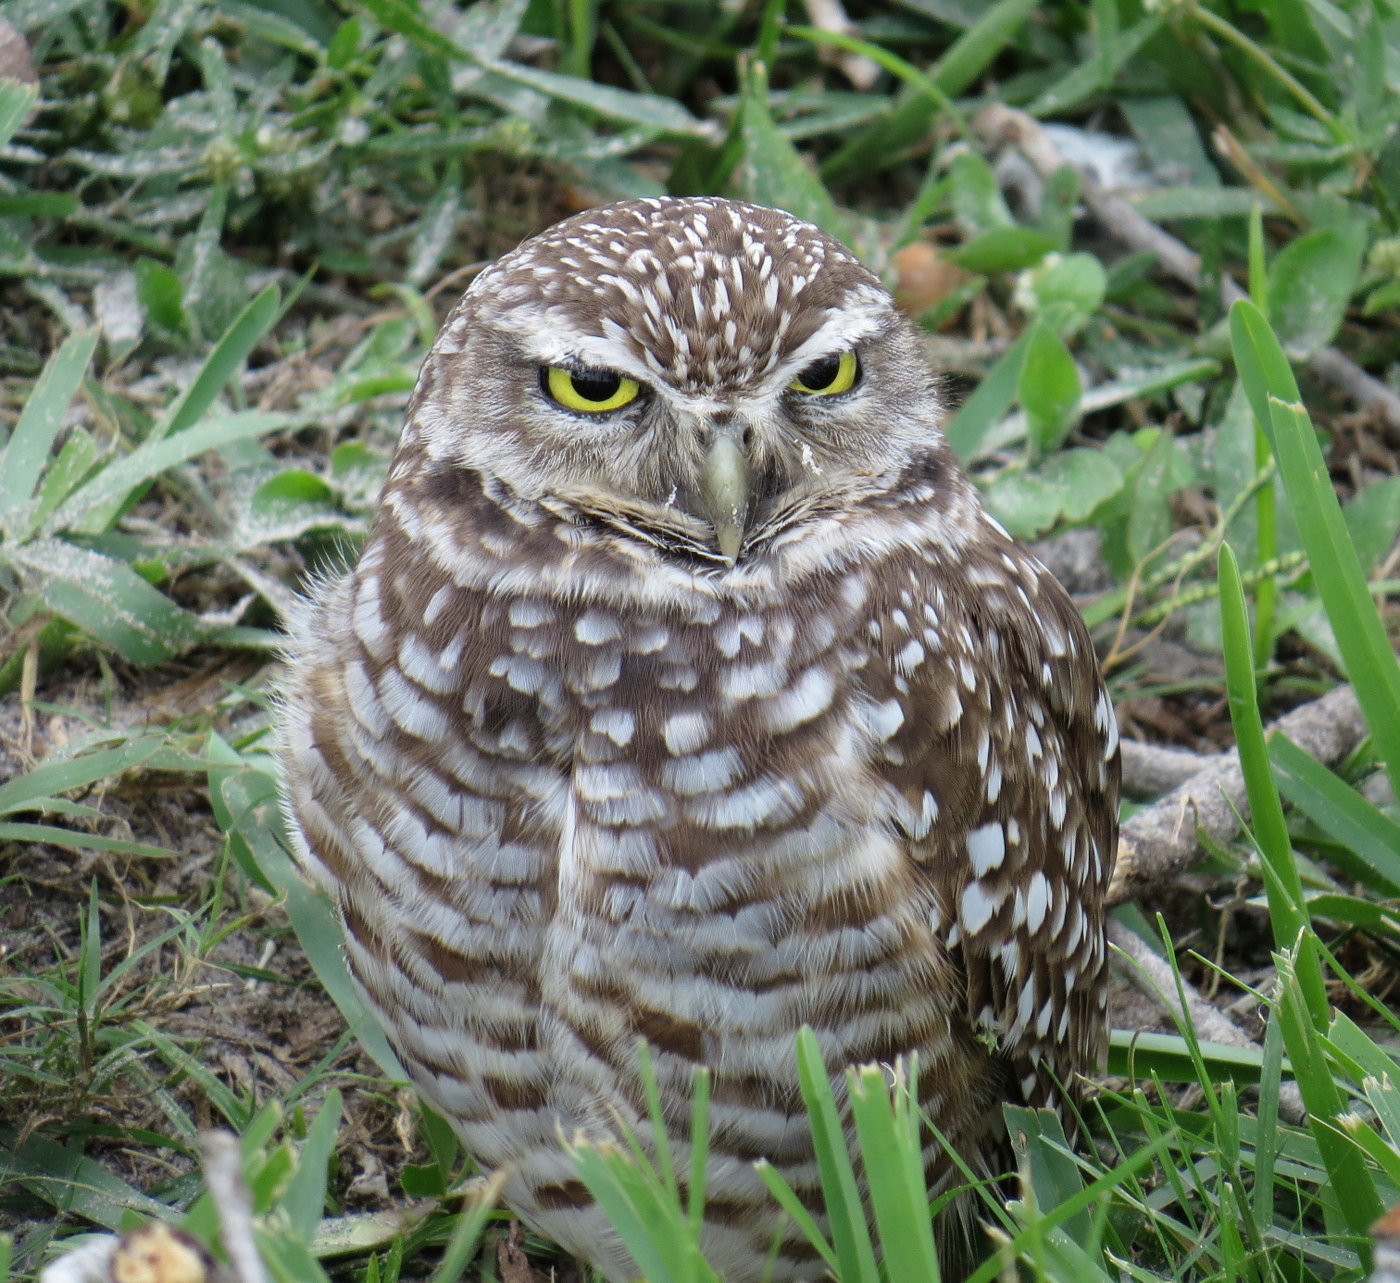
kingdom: Animalia
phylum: Chordata
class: Aves
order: Strigiformes
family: Strigidae
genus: Athene
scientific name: Athene cunicularia
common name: Burrowing owl
